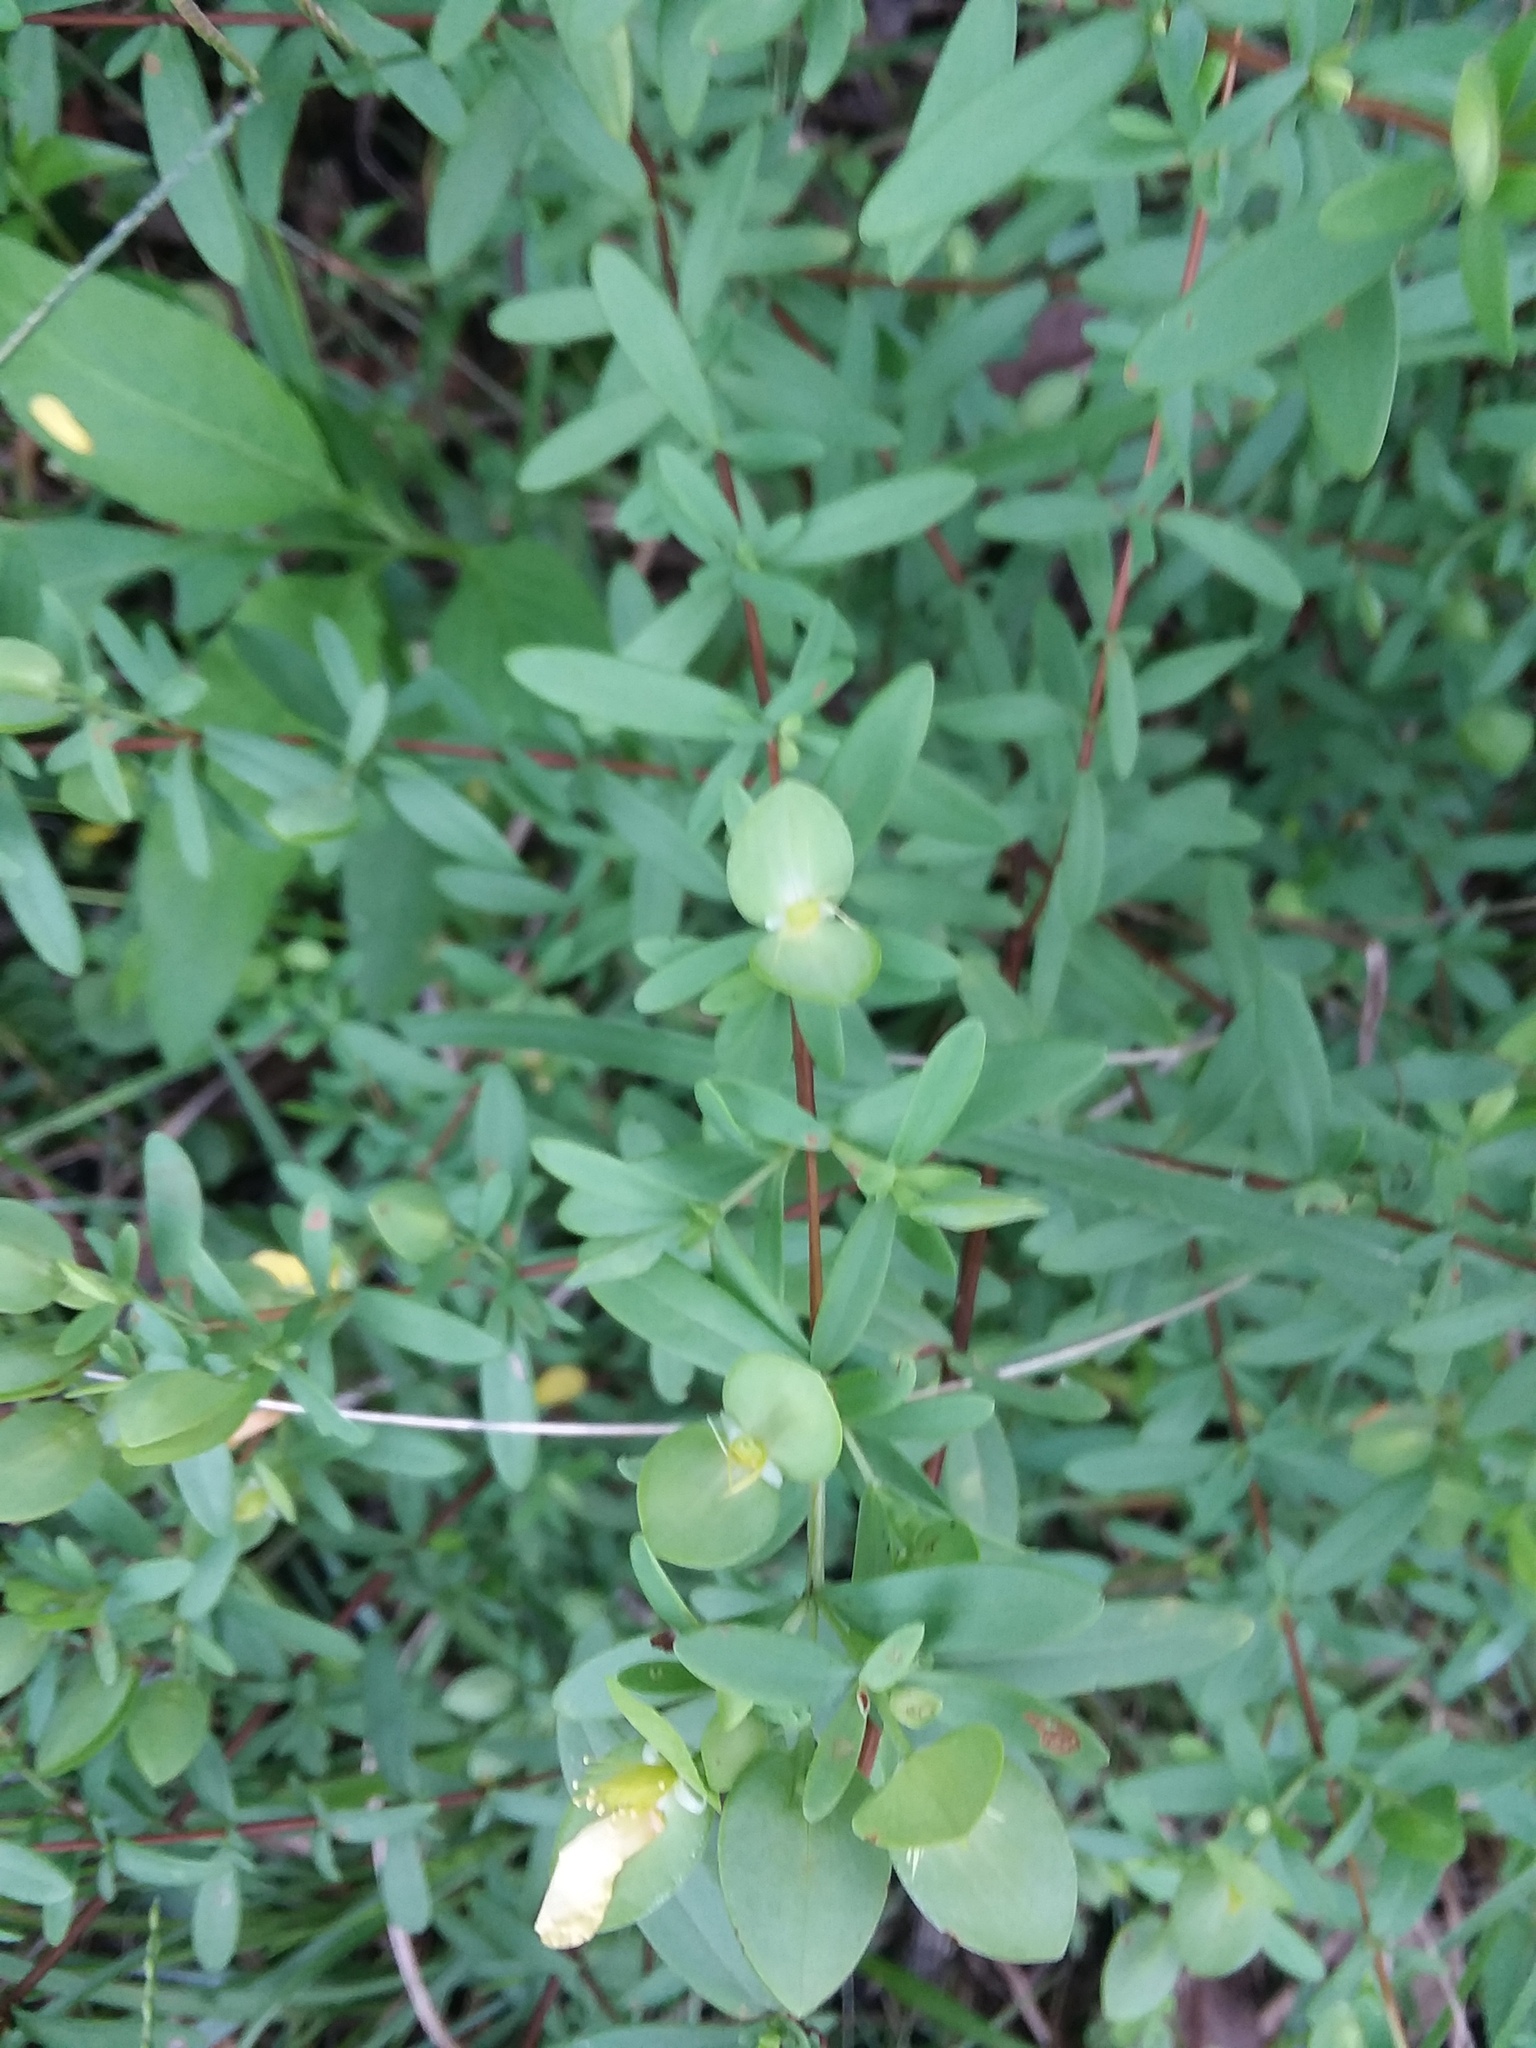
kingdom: Plantae
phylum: Tracheophyta
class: Magnoliopsida
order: Malpighiales
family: Hypericaceae
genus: Hypericum
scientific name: Hypericum hypericoides
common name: St. andrew's cross
